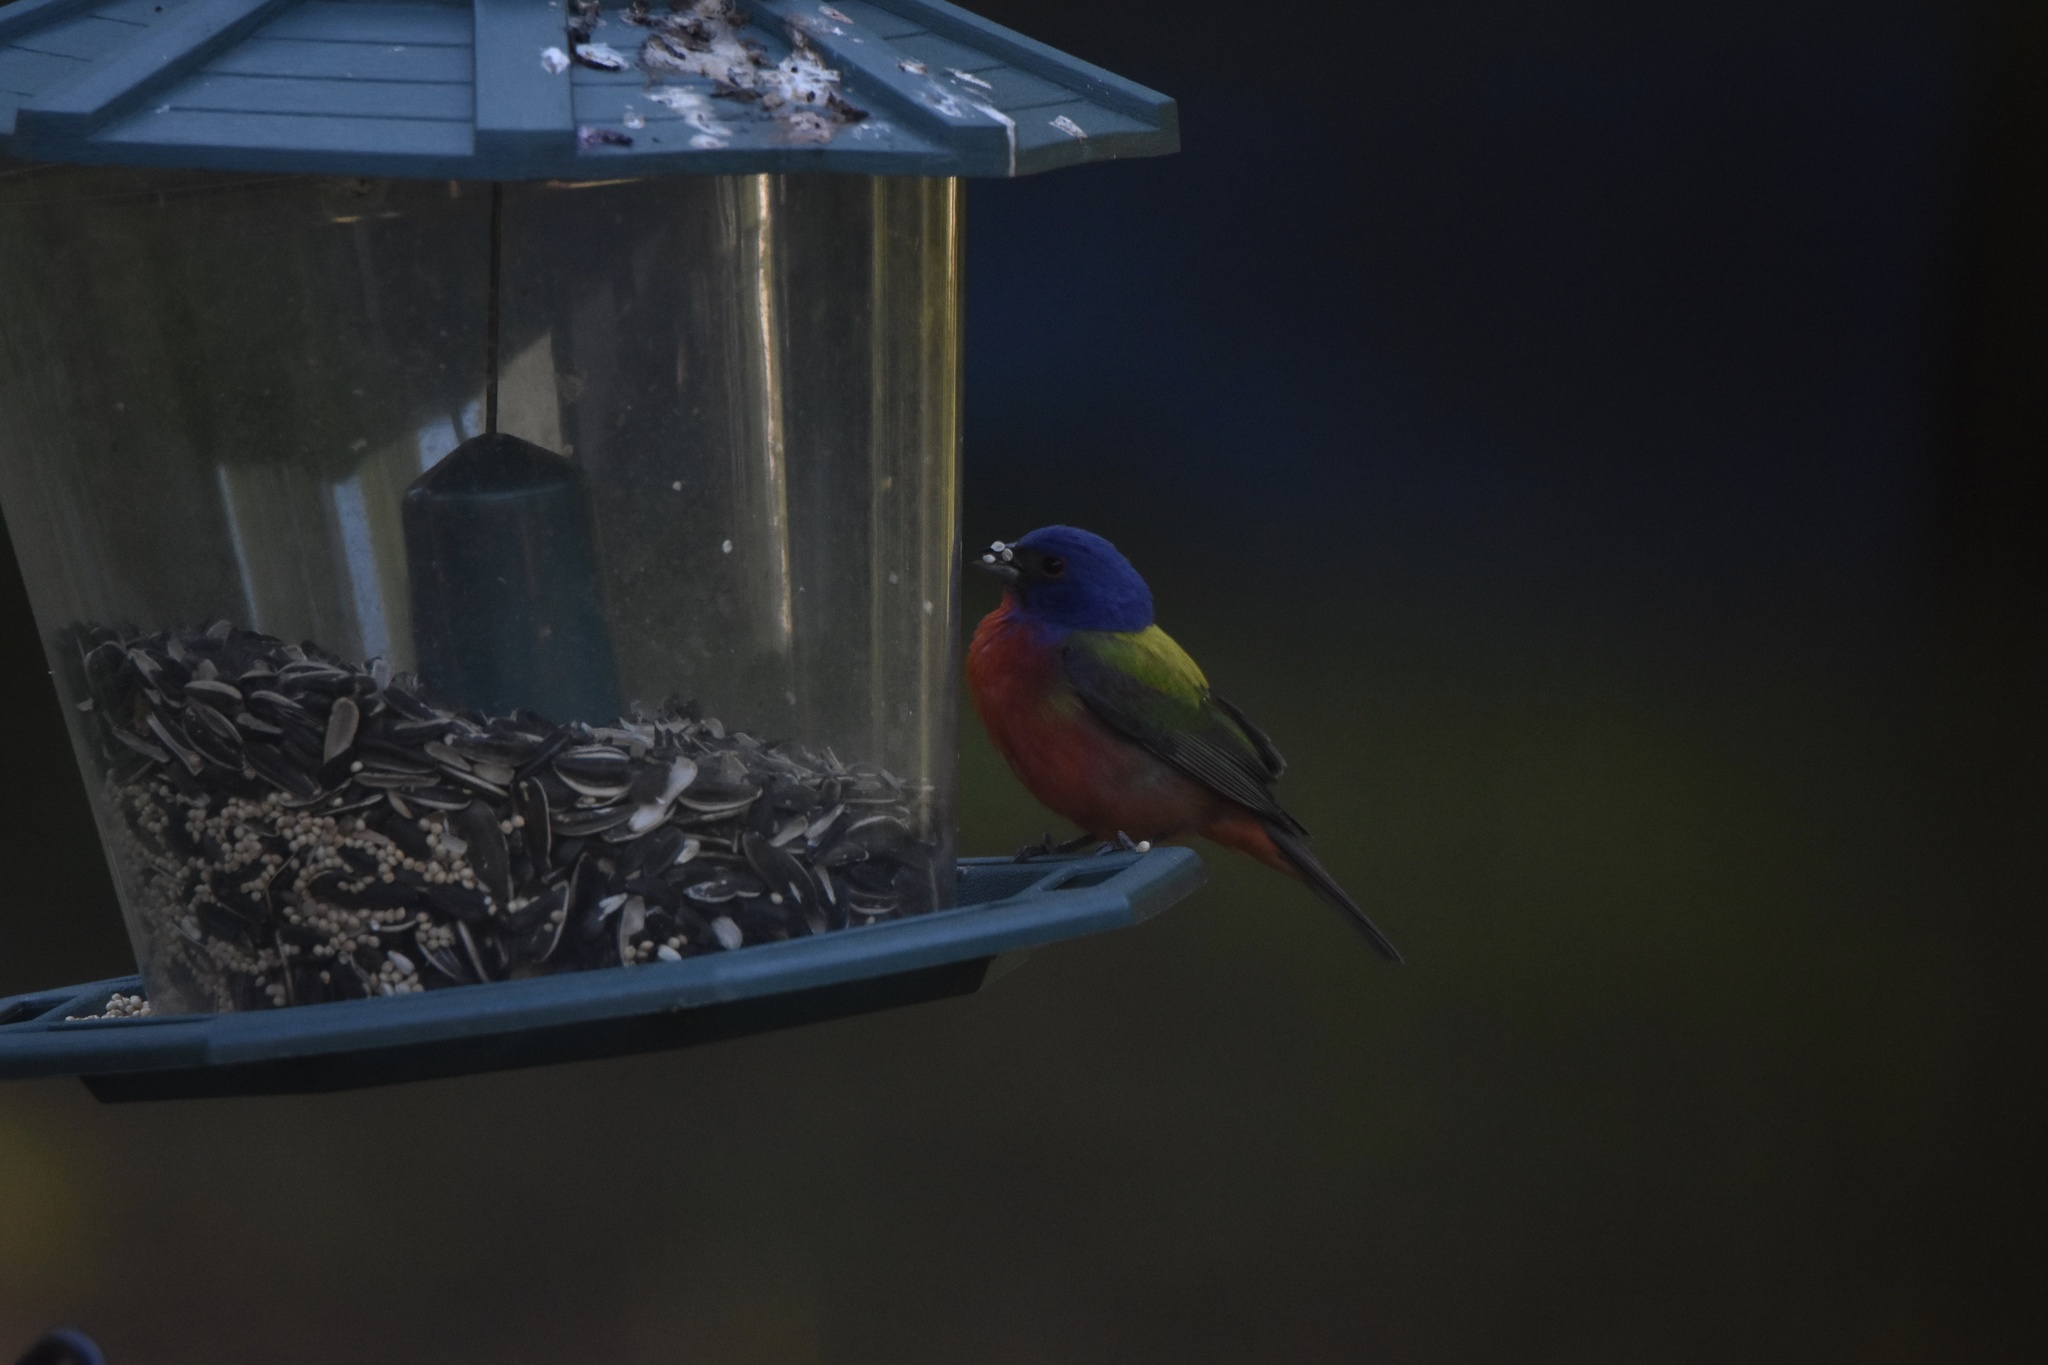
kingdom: Animalia
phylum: Chordata
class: Aves
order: Passeriformes
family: Cardinalidae
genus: Passerina
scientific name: Passerina ciris
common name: Painted bunting
